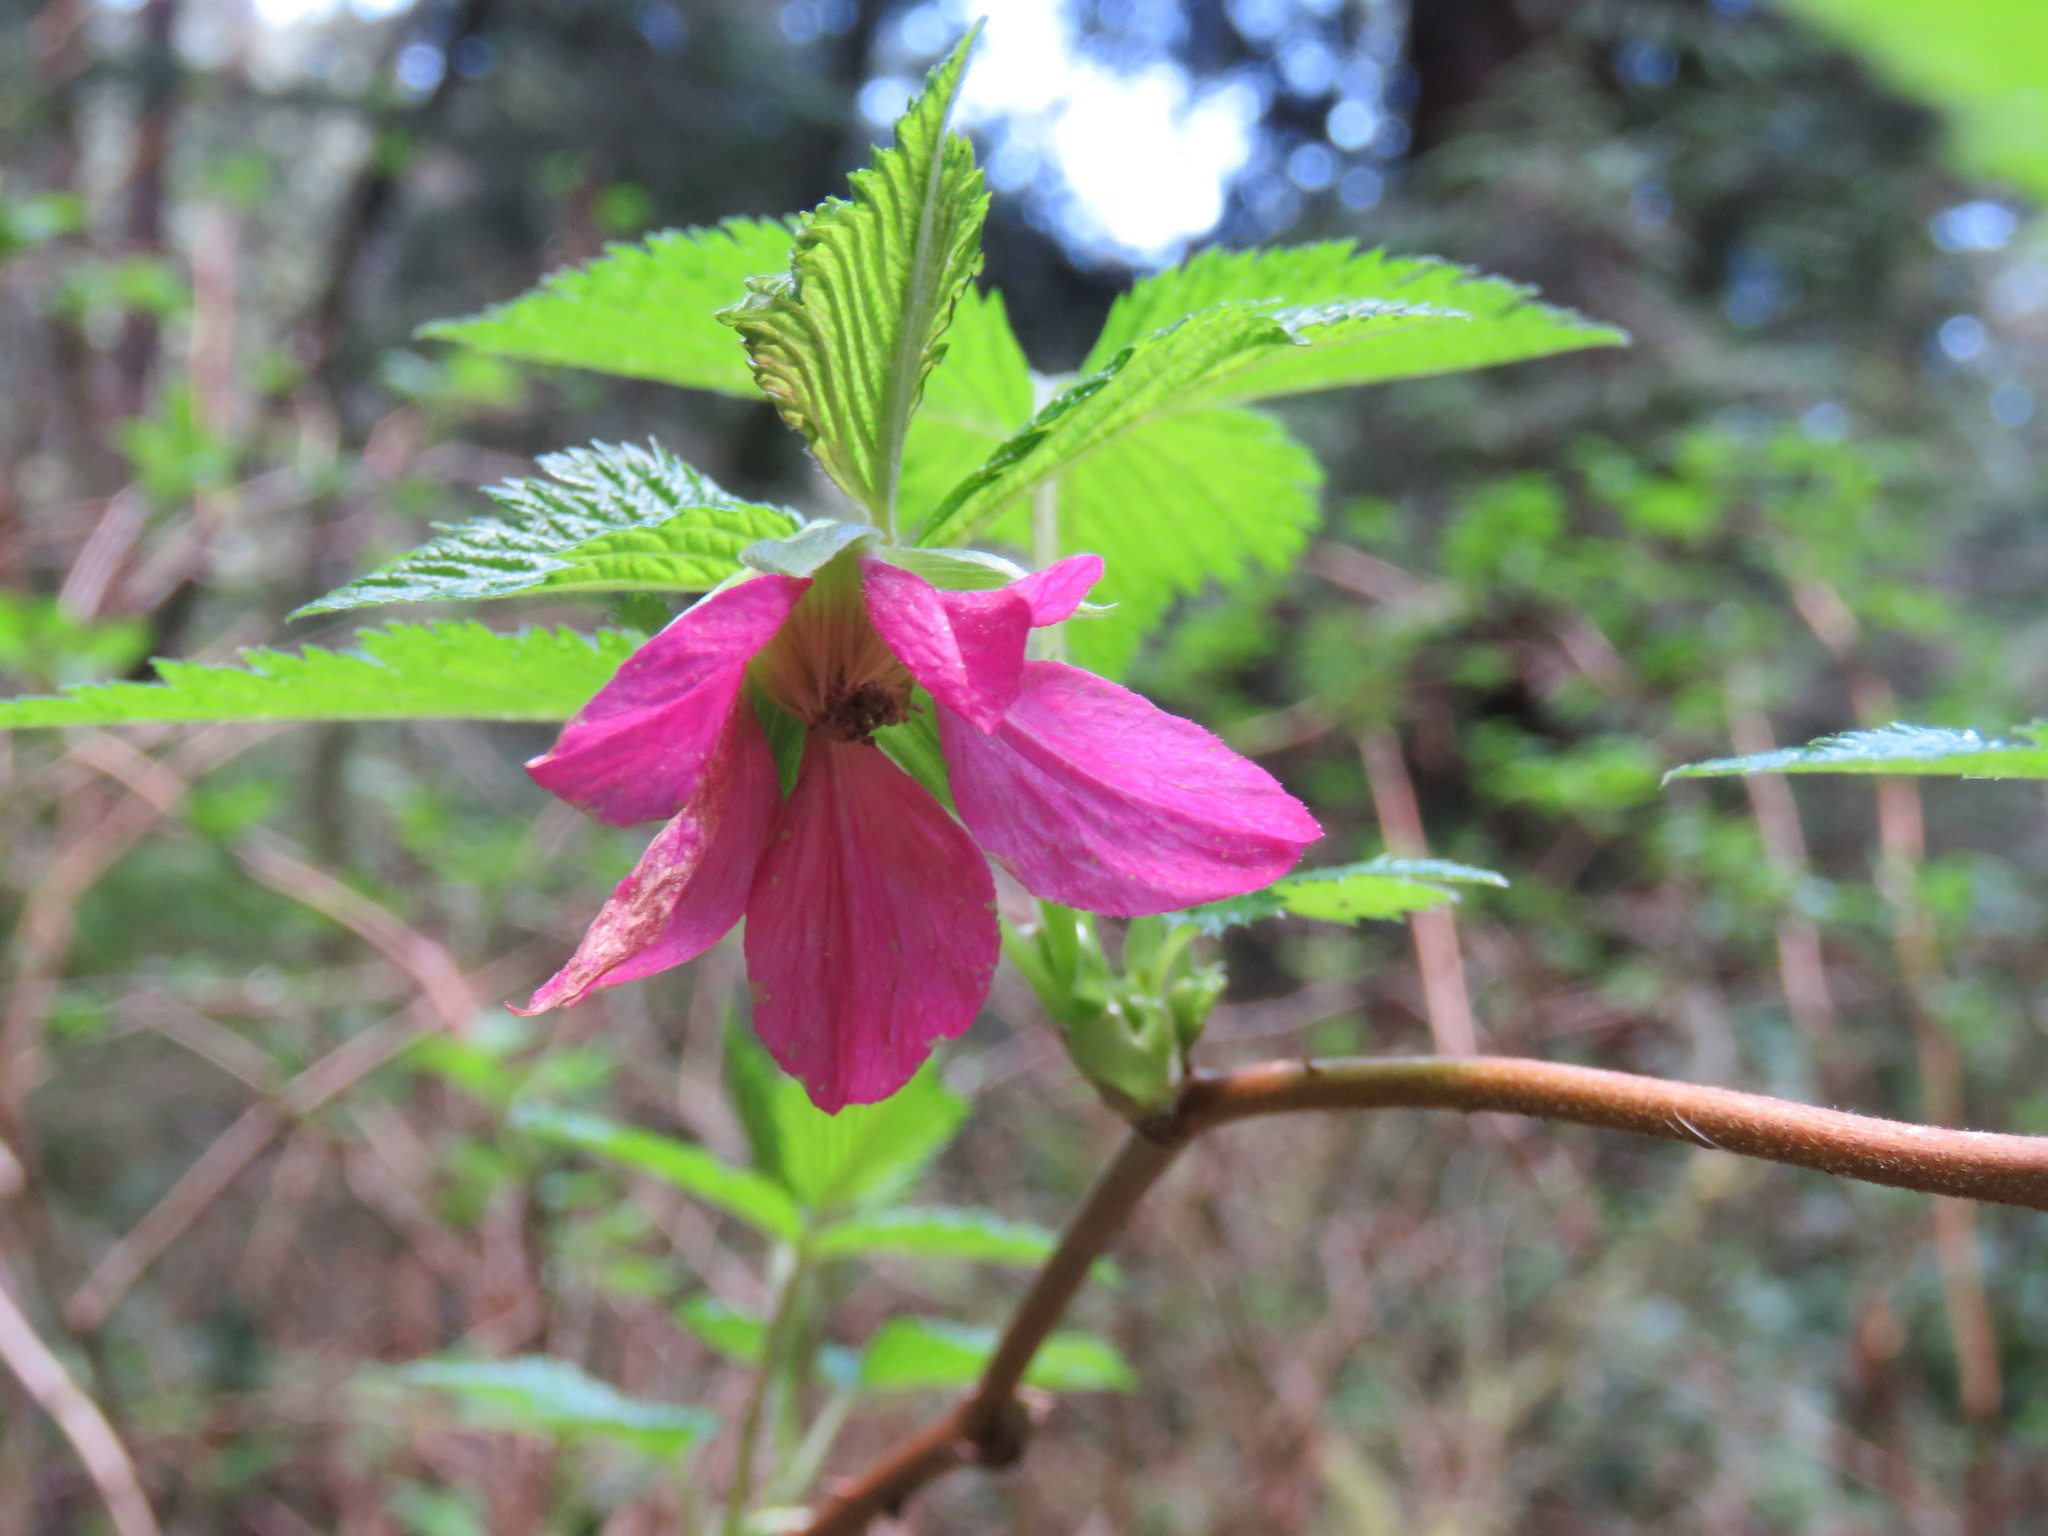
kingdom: Plantae
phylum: Tracheophyta
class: Magnoliopsida
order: Rosales
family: Rosaceae
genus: Rubus
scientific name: Rubus spectabilis
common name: Salmonberry
